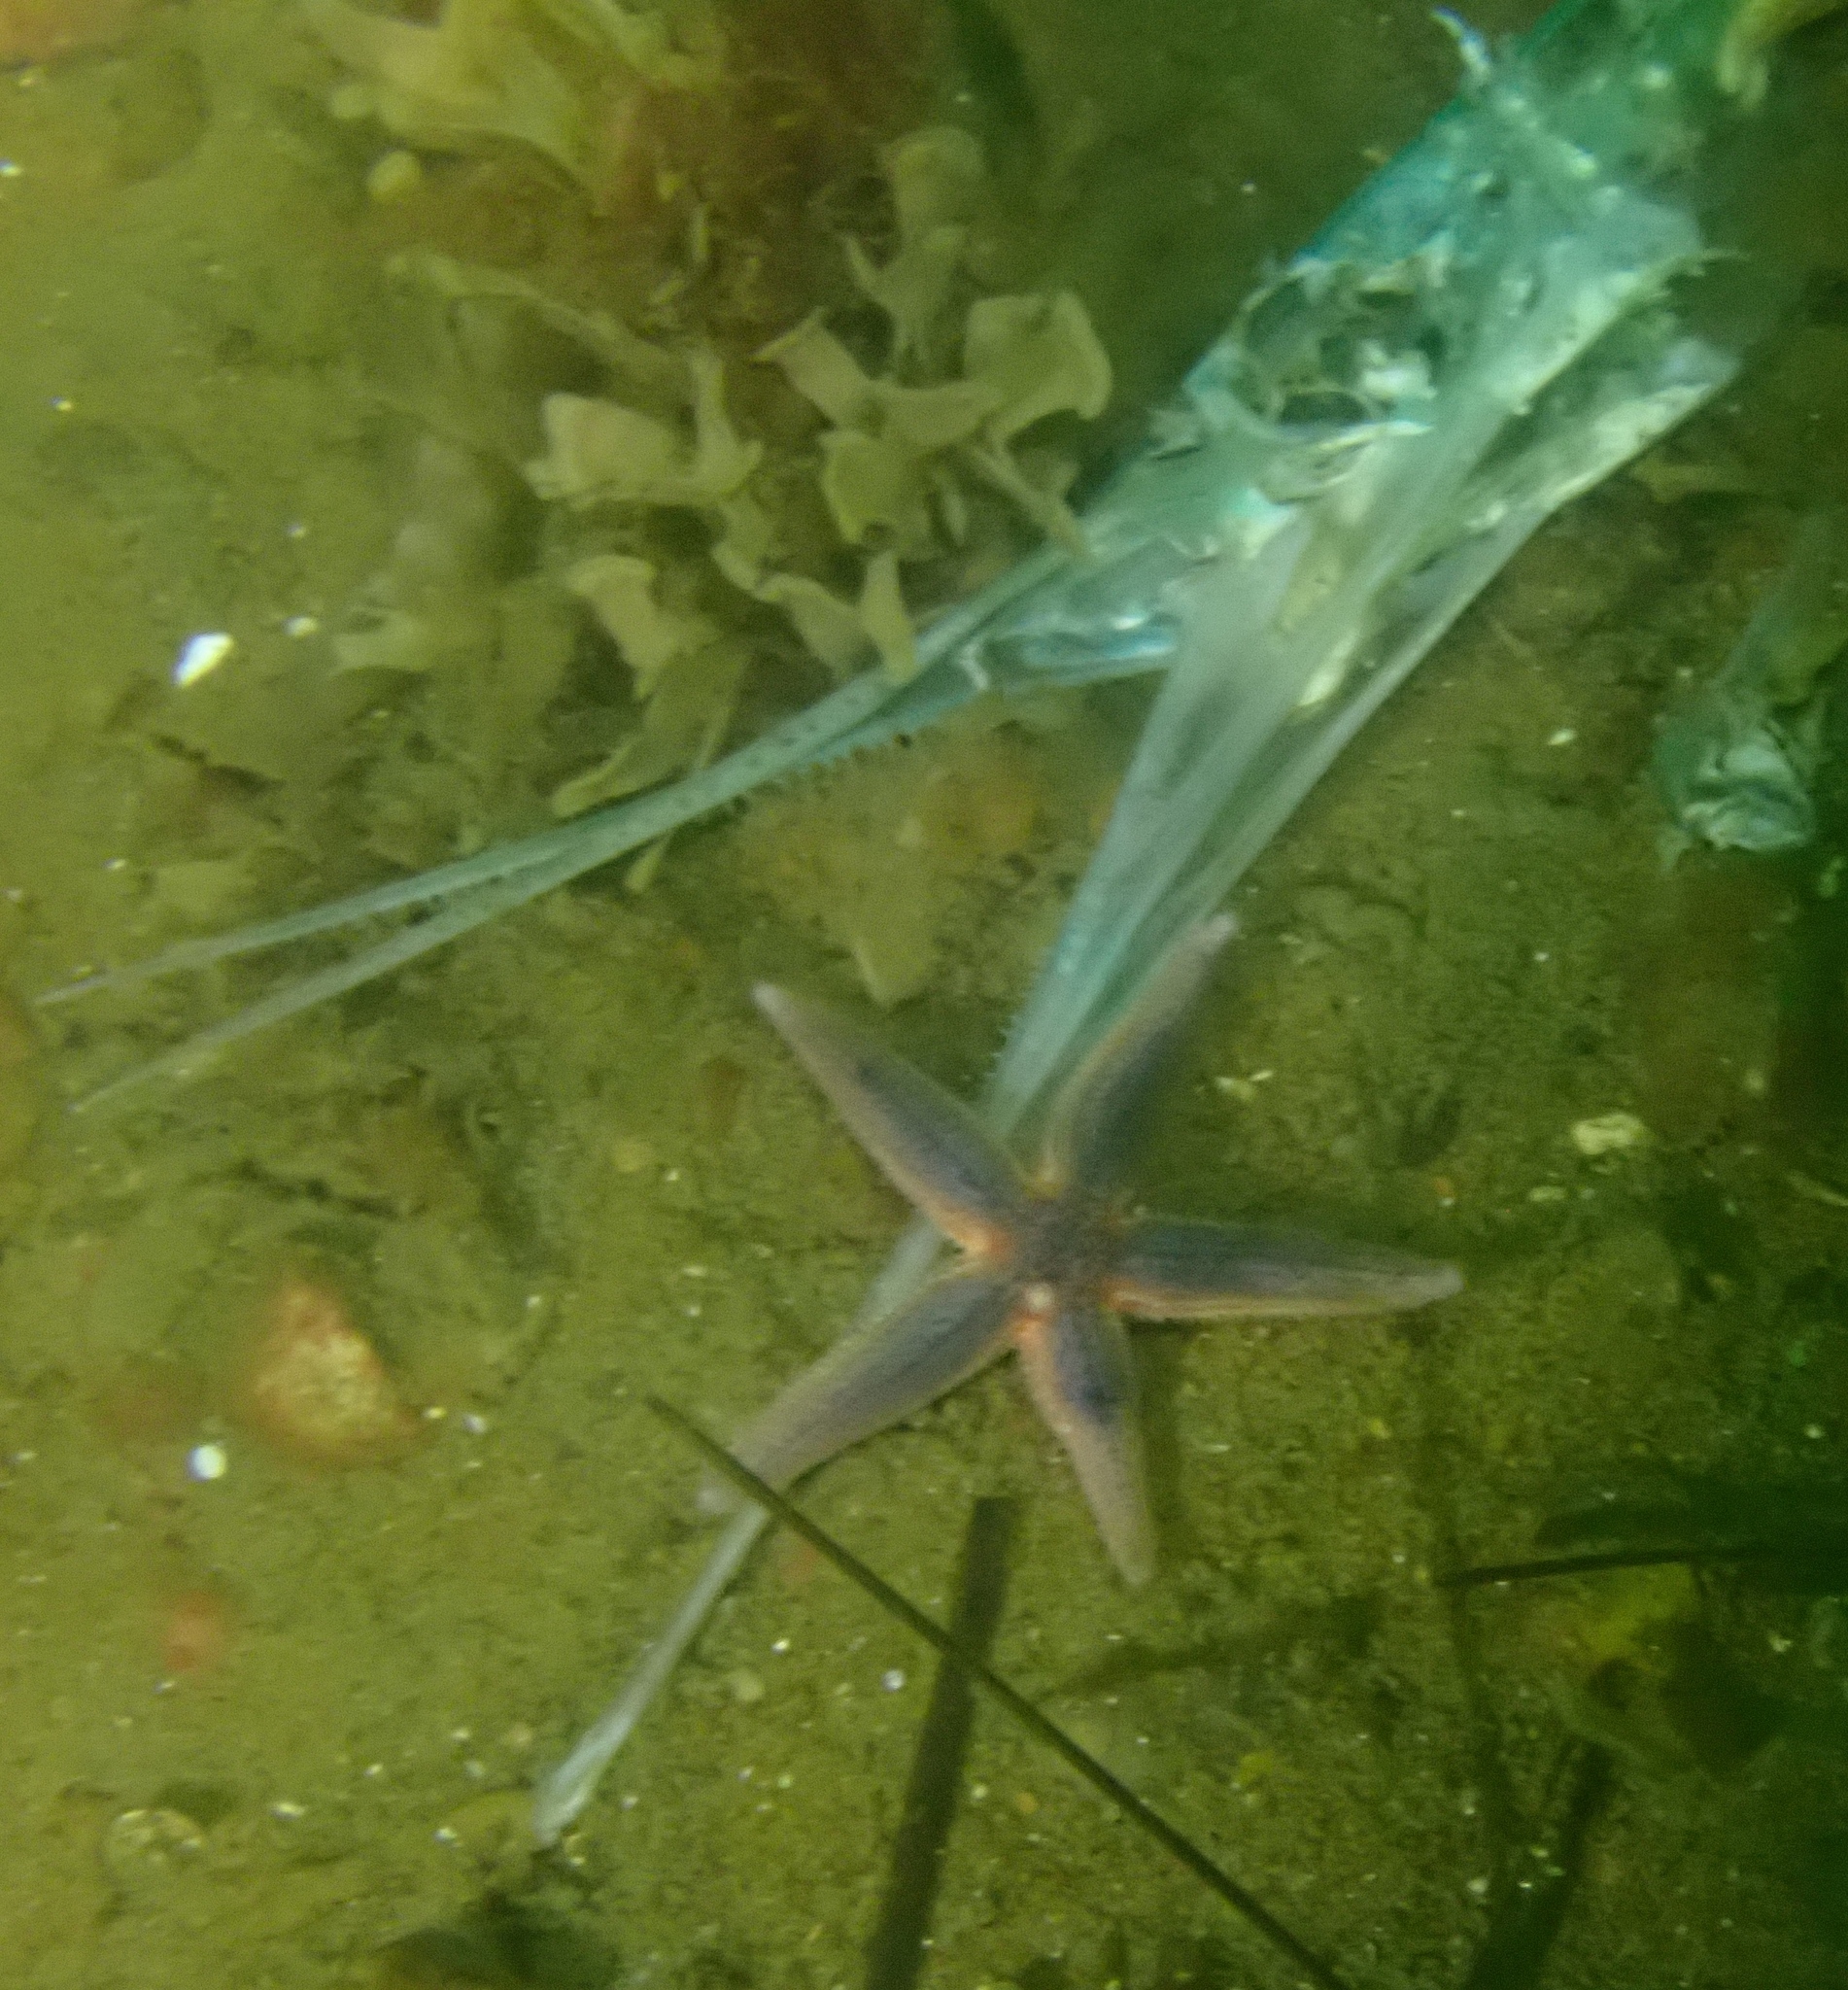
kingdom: Animalia
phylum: Chordata
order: Beloniformes
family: Belonidae
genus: Belone
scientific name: Belone belone
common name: Garfish
